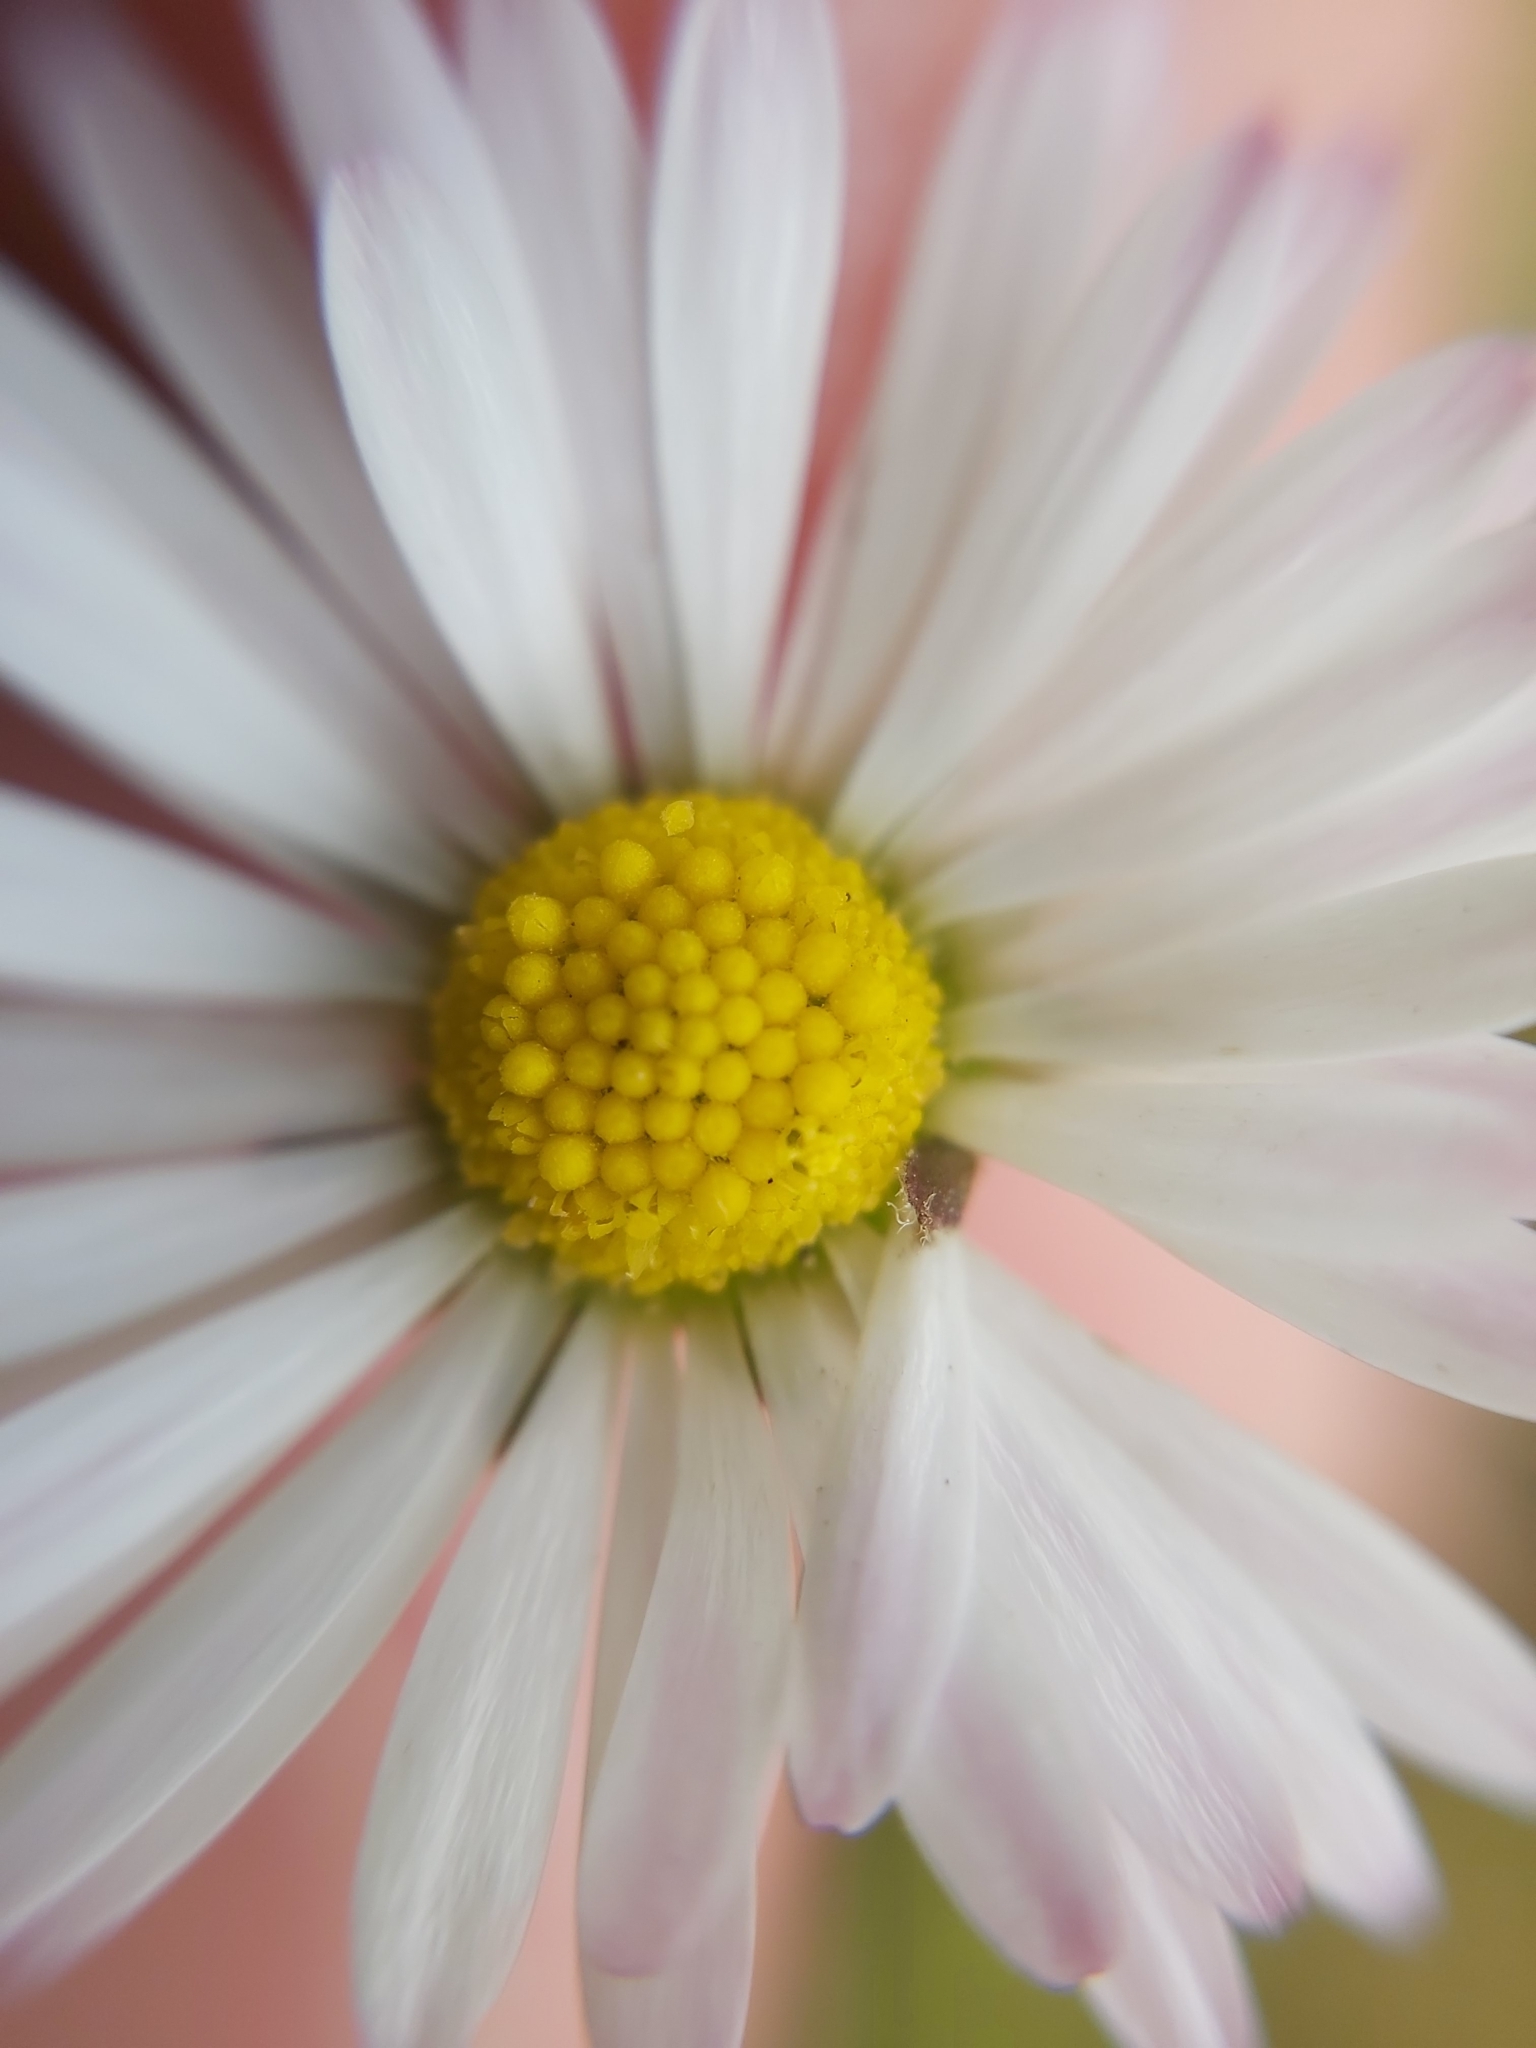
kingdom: Plantae
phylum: Tracheophyta
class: Magnoliopsida
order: Asterales
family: Asteraceae
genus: Bellis
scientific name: Bellis perennis
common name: Lawndaisy
